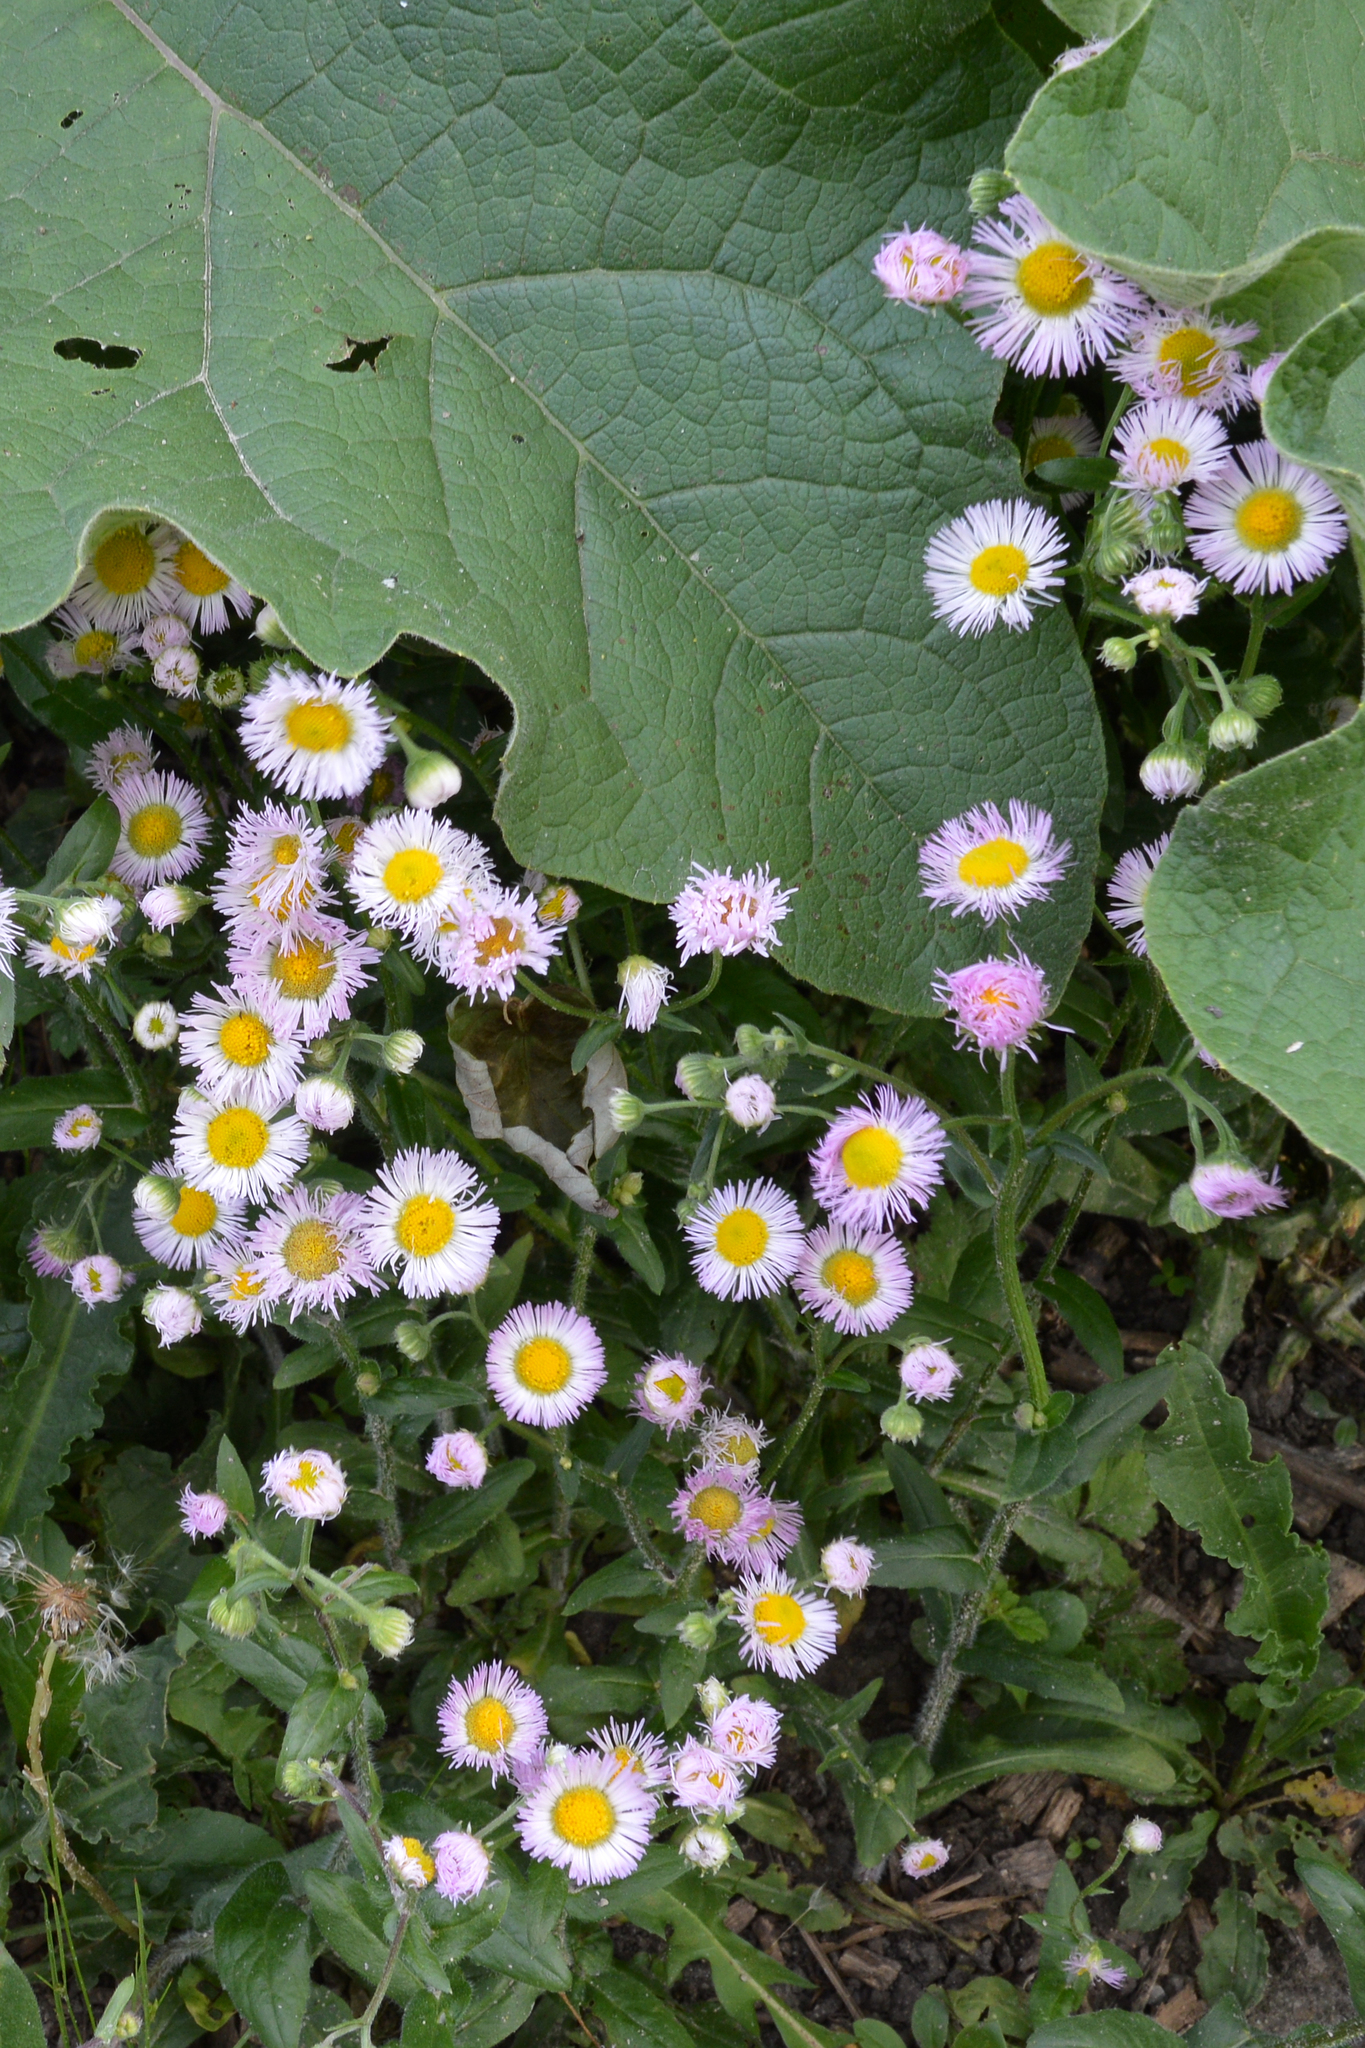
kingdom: Plantae
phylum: Tracheophyta
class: Magnoliopsida
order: Asterales
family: Asteraceae
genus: Erigeron
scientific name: Erigeron philadelphicus
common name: Robin's-plantain
